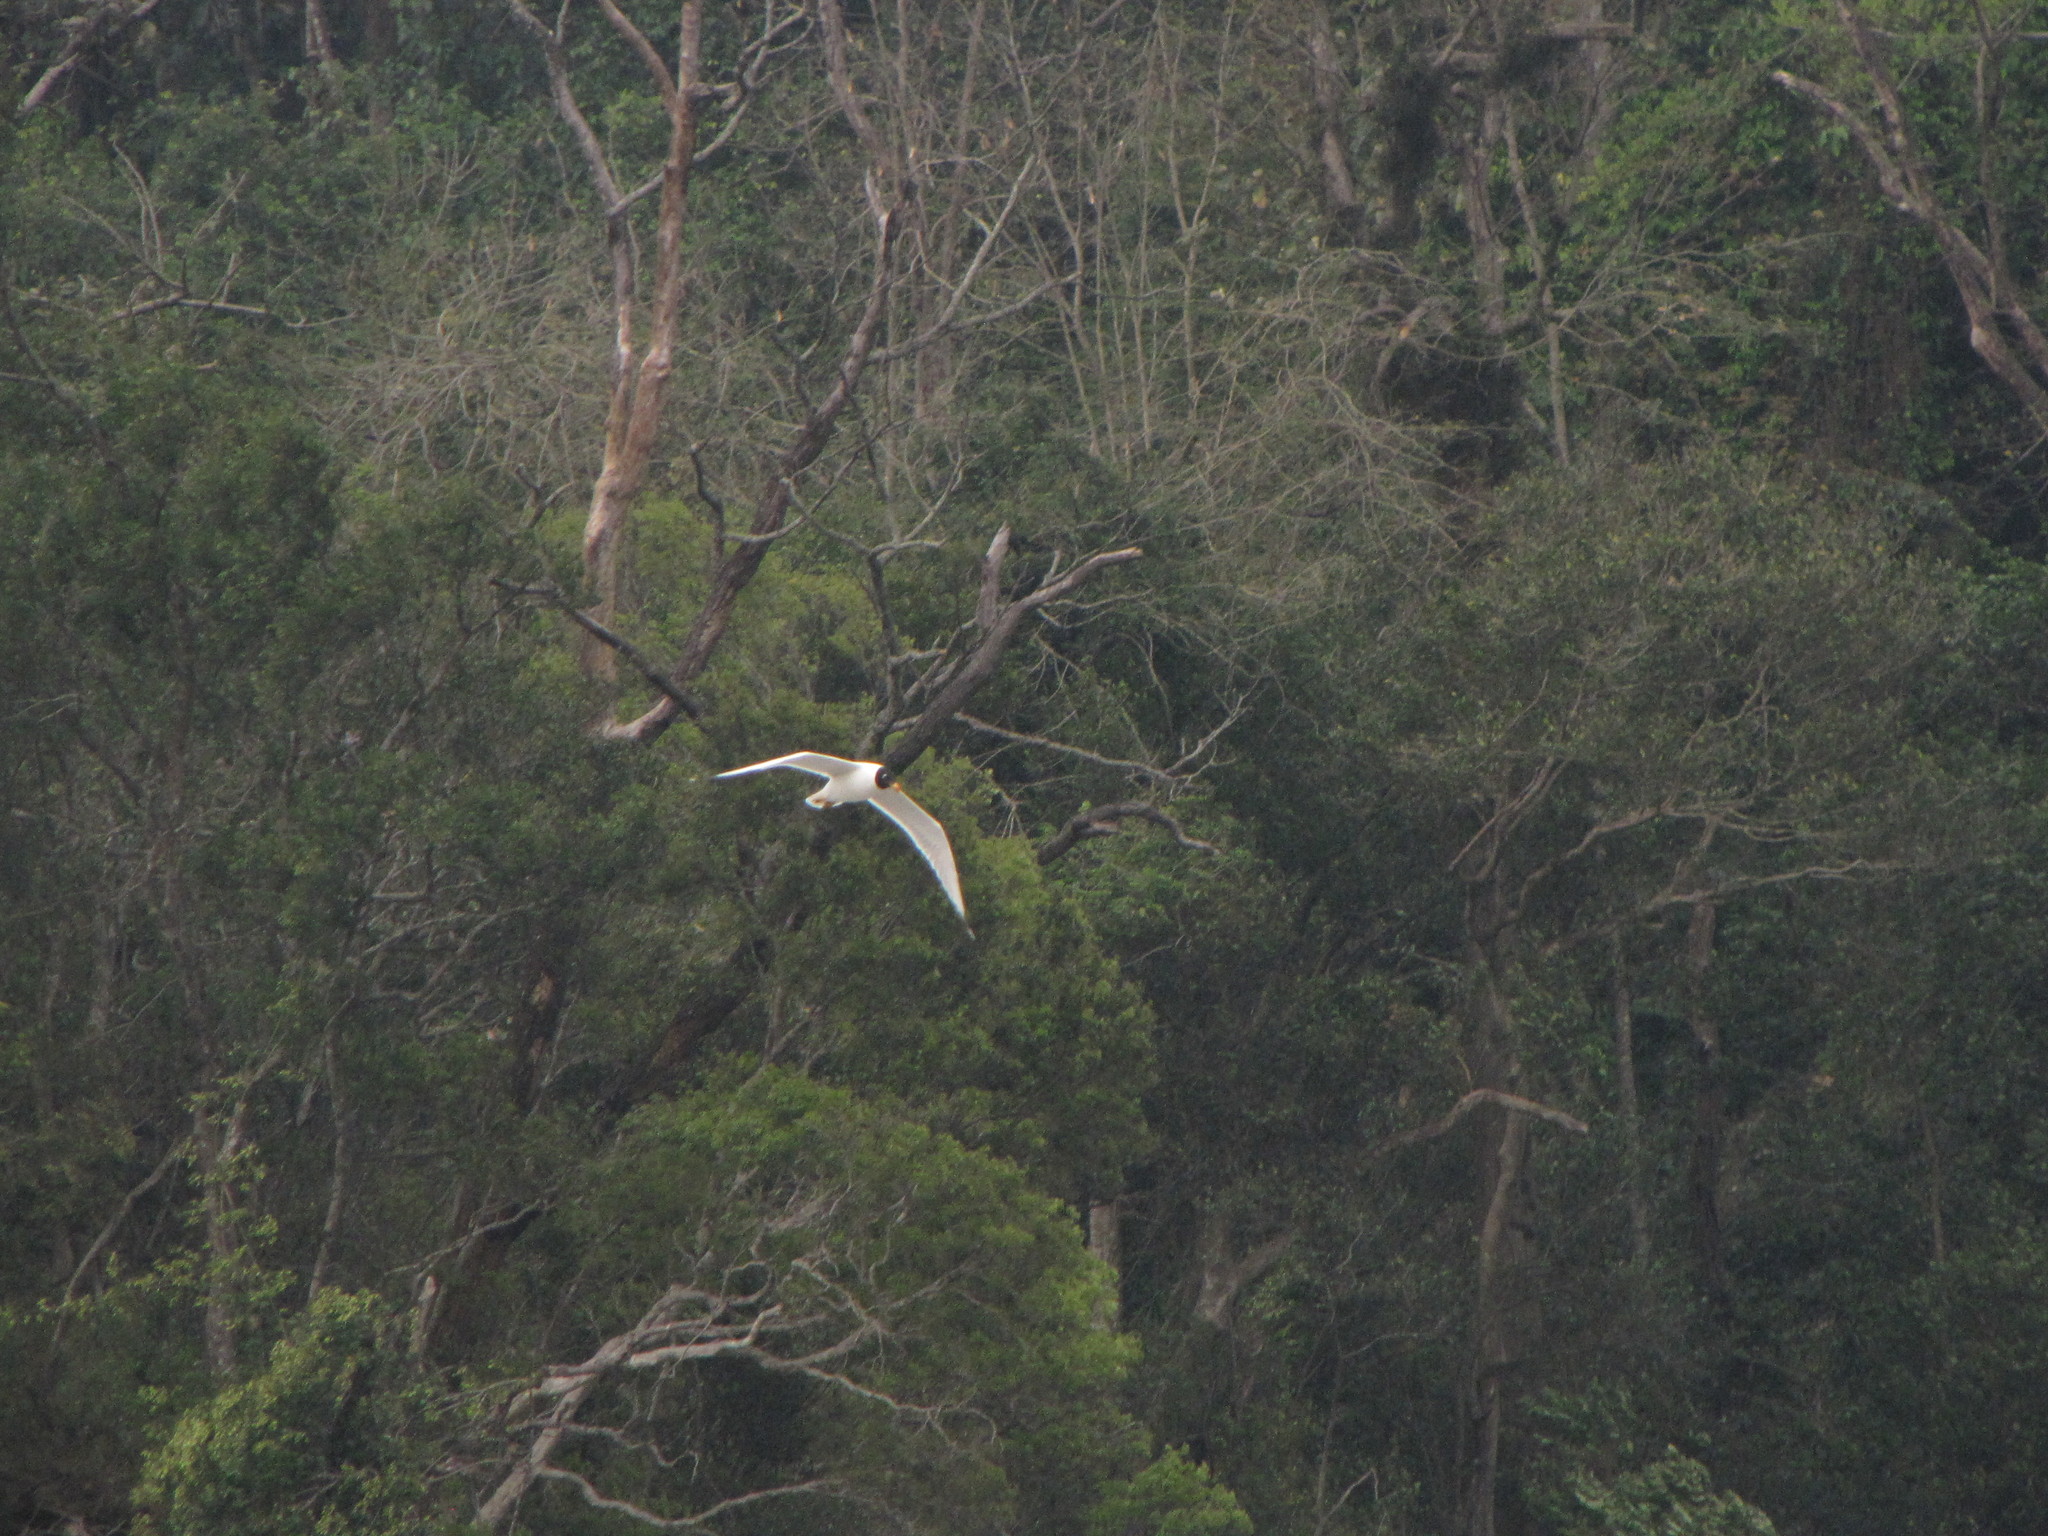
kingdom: Animalia
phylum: Chordata
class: Aves
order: Charadriiformes
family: Laridae
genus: Ichthyaetus
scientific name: Ichthyaetus ichthyaetus
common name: Pallas's gull
